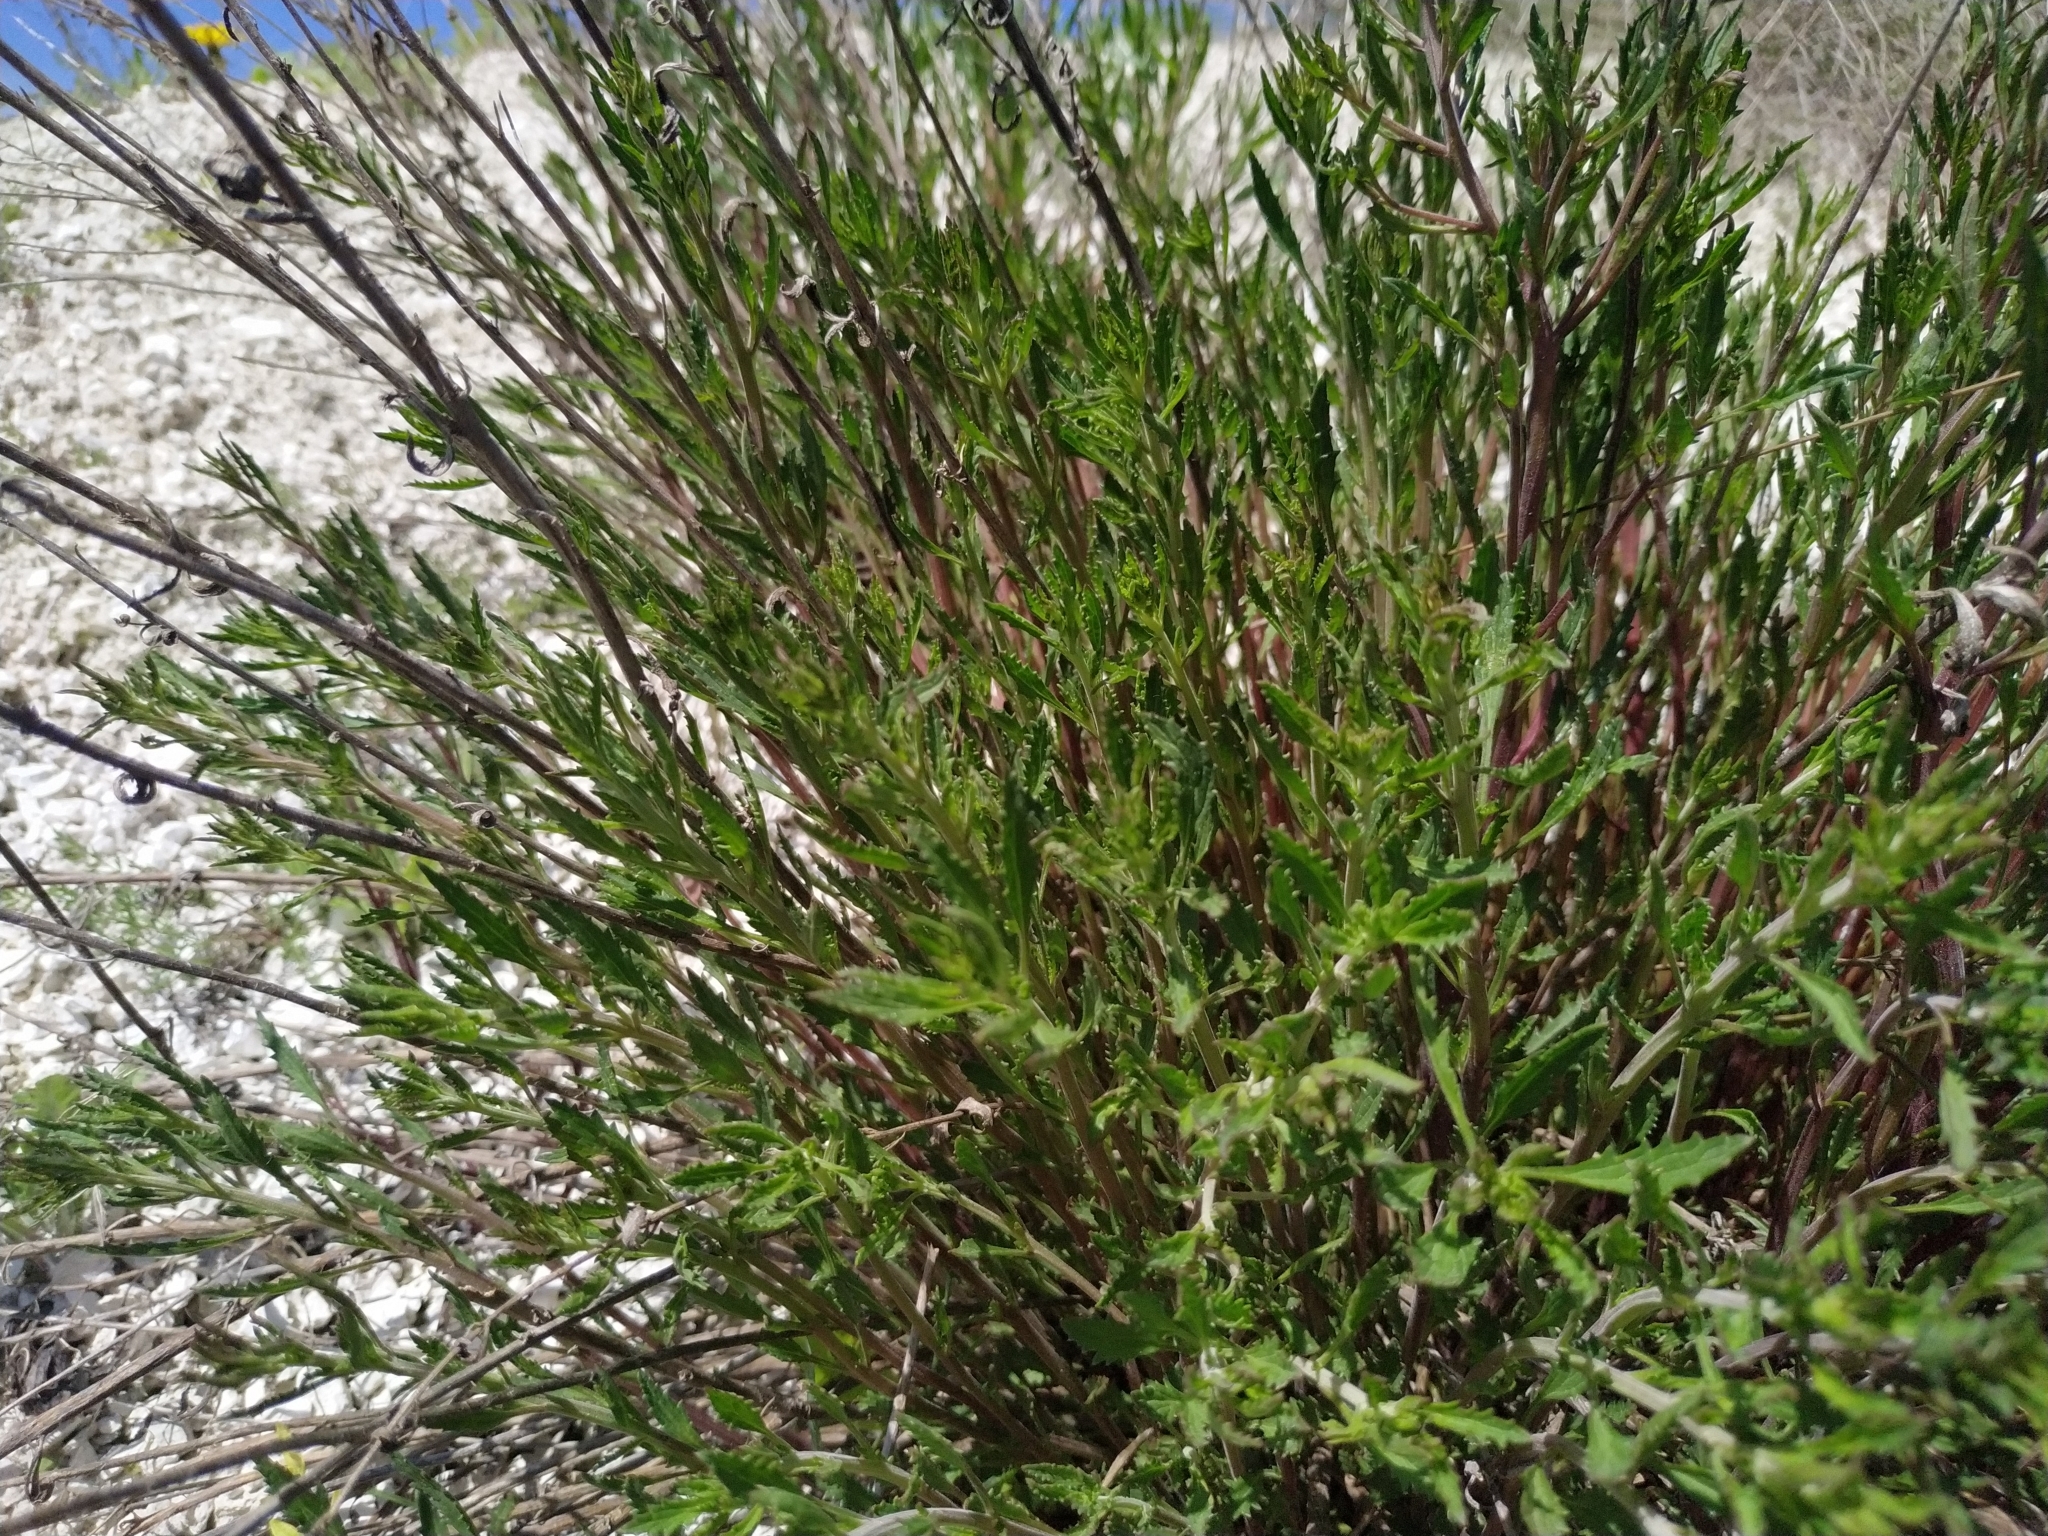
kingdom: Plantae
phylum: Tracheophyta
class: Magnoliopsida
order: Lamiales
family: Scrophulariaceae
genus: Scrophularia
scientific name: Scrophularia cretacea
